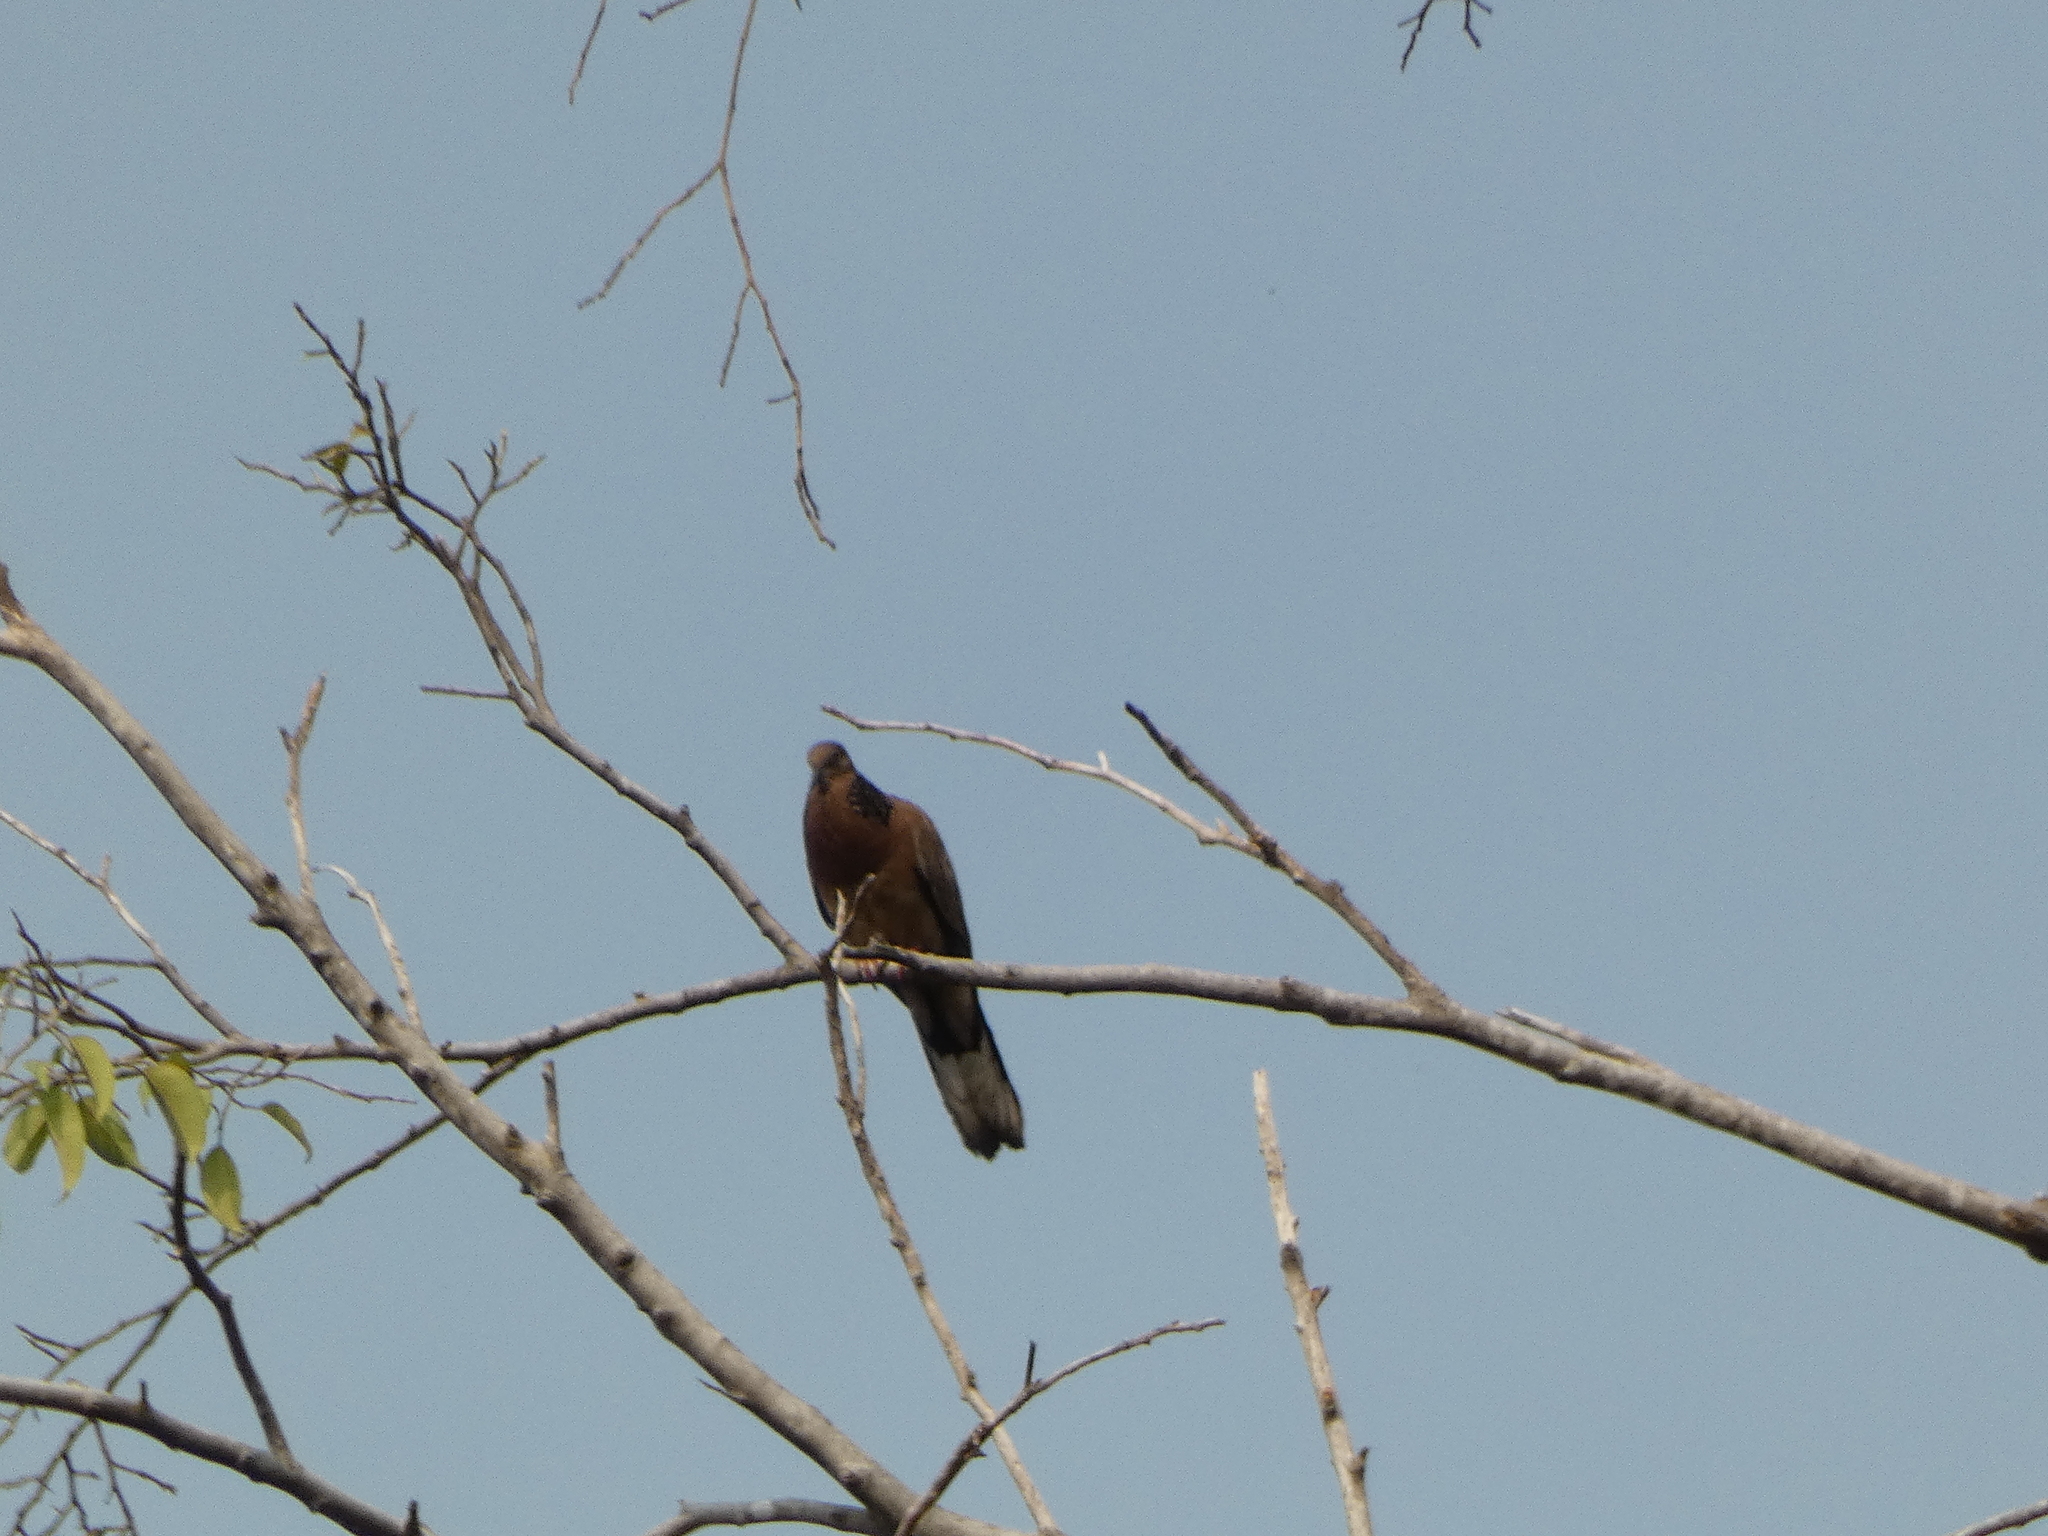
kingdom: Animalia
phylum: Chordata
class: Aves
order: Columbiformes
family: Columbidae
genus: Spilopelia
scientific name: Spilopelia chinensis
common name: Spotted dove
